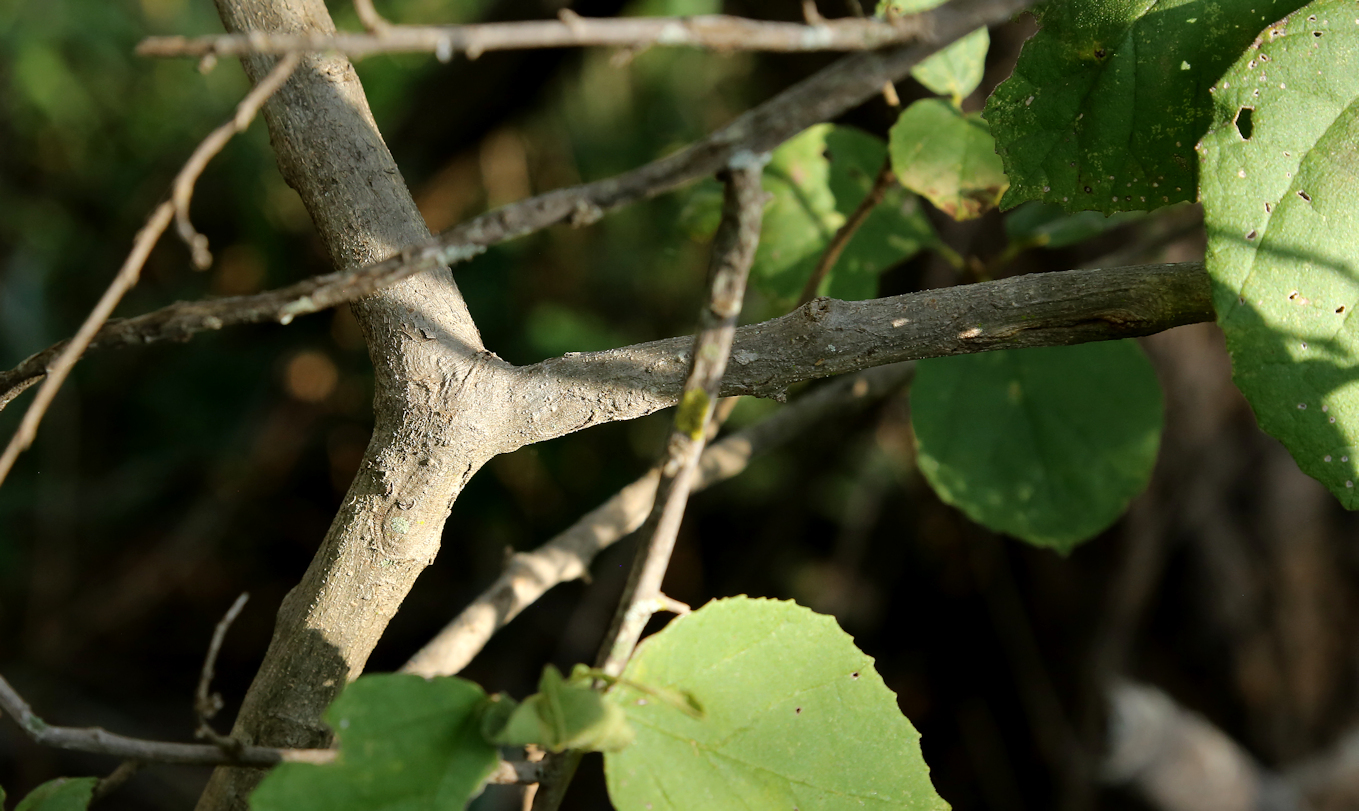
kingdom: Plantae
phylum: Tracheophyta
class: Magnoliopsida
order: Boraginales
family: Cordiaceae
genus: Cordia
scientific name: Cordia monoica
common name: Snot berry
